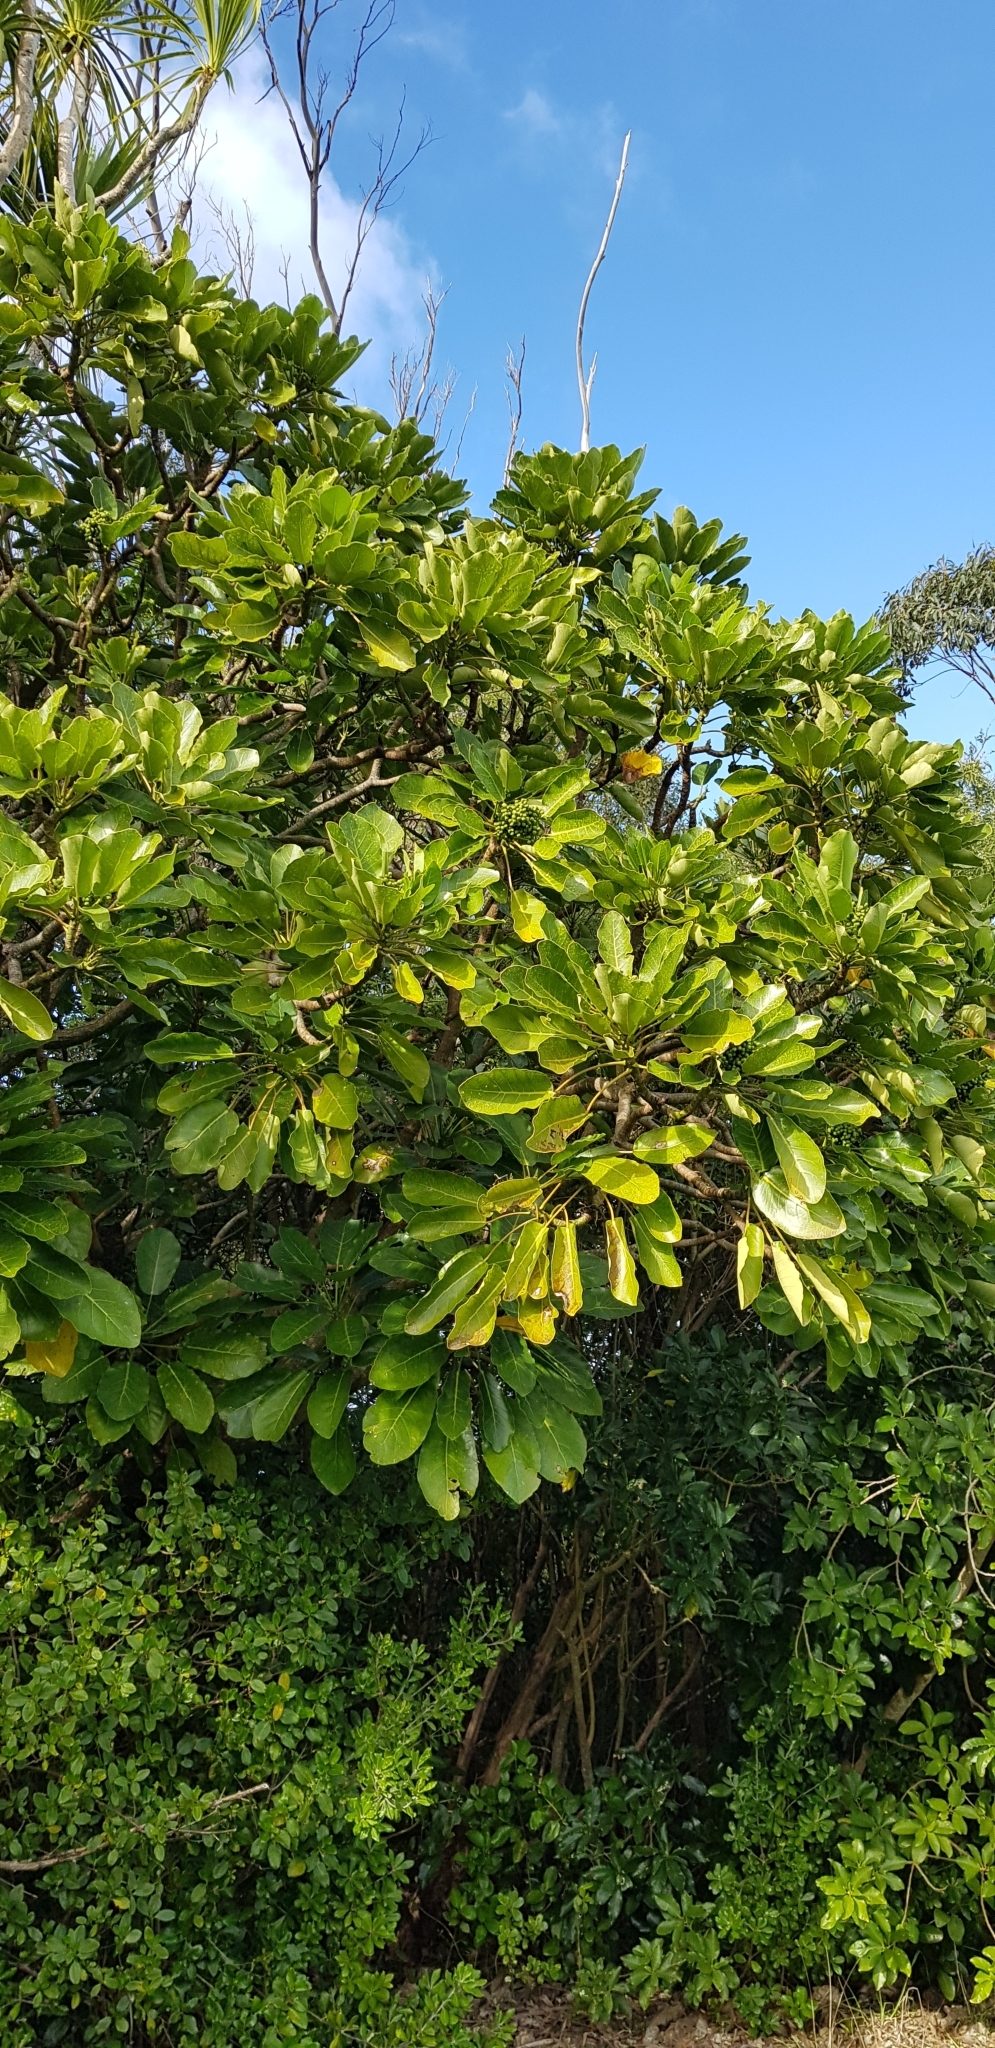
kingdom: Plantae
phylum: Tracheophyta
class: Magnoliopsida
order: Apiales
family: Araliaceae
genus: Meryta
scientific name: Meryta sinclairii
